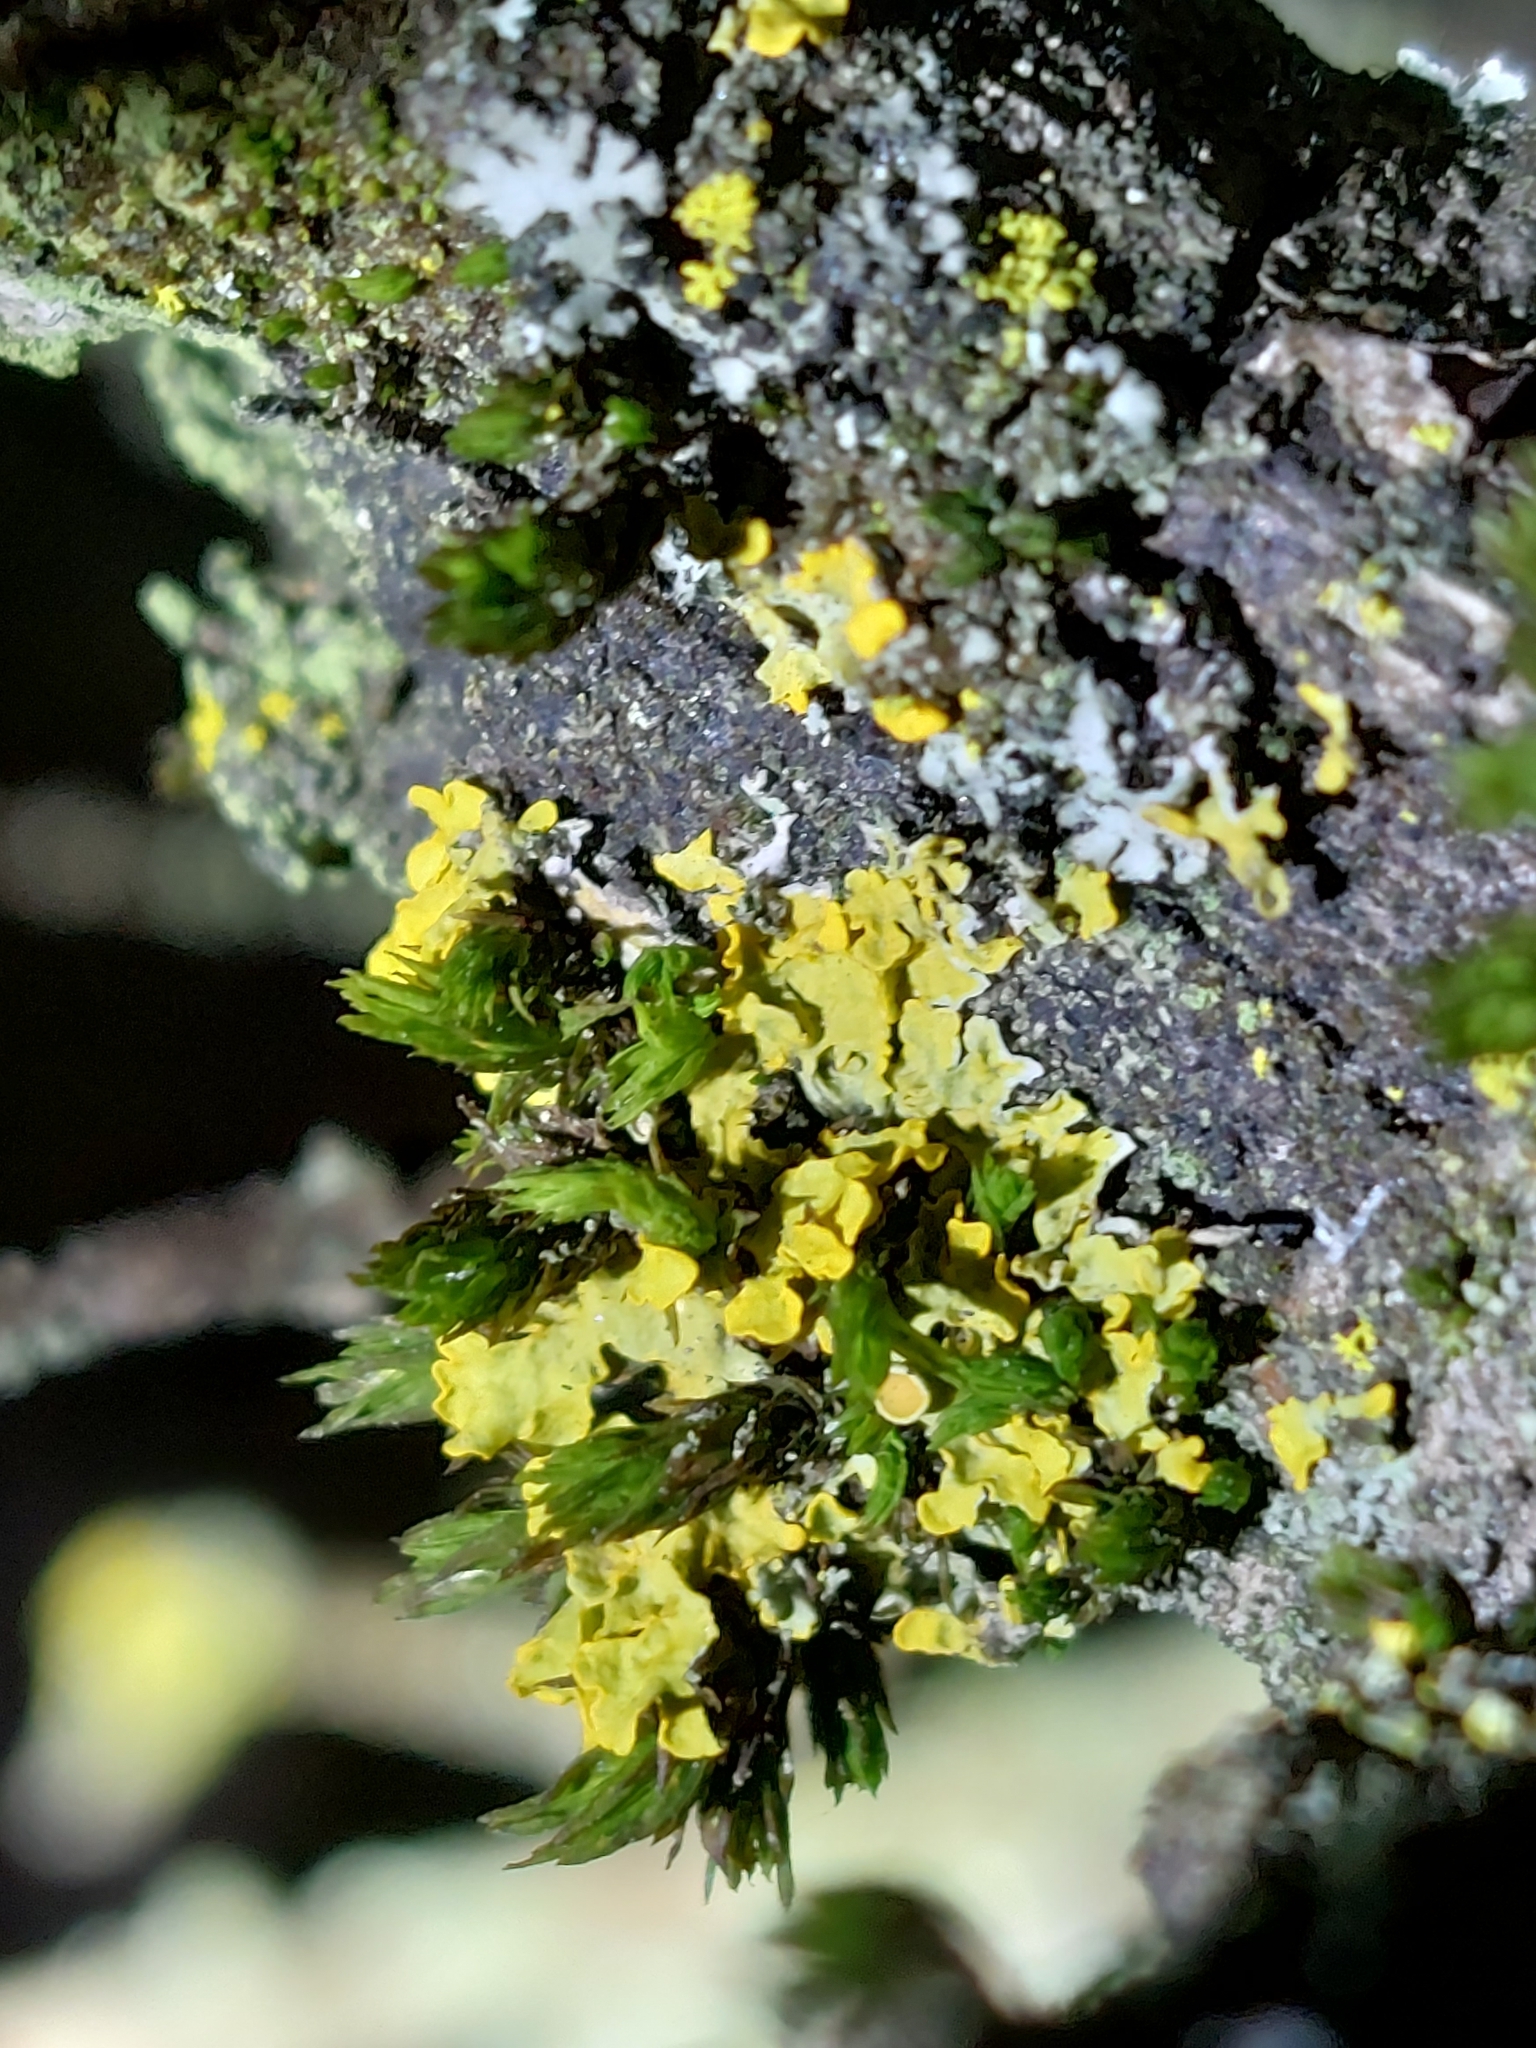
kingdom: Fungi
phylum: Ascomycota
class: Lecanoromycetes
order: Teloschistales
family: Teloschistaceae
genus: Xanthoria
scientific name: Xanthoria parietina
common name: Common orange lichen
